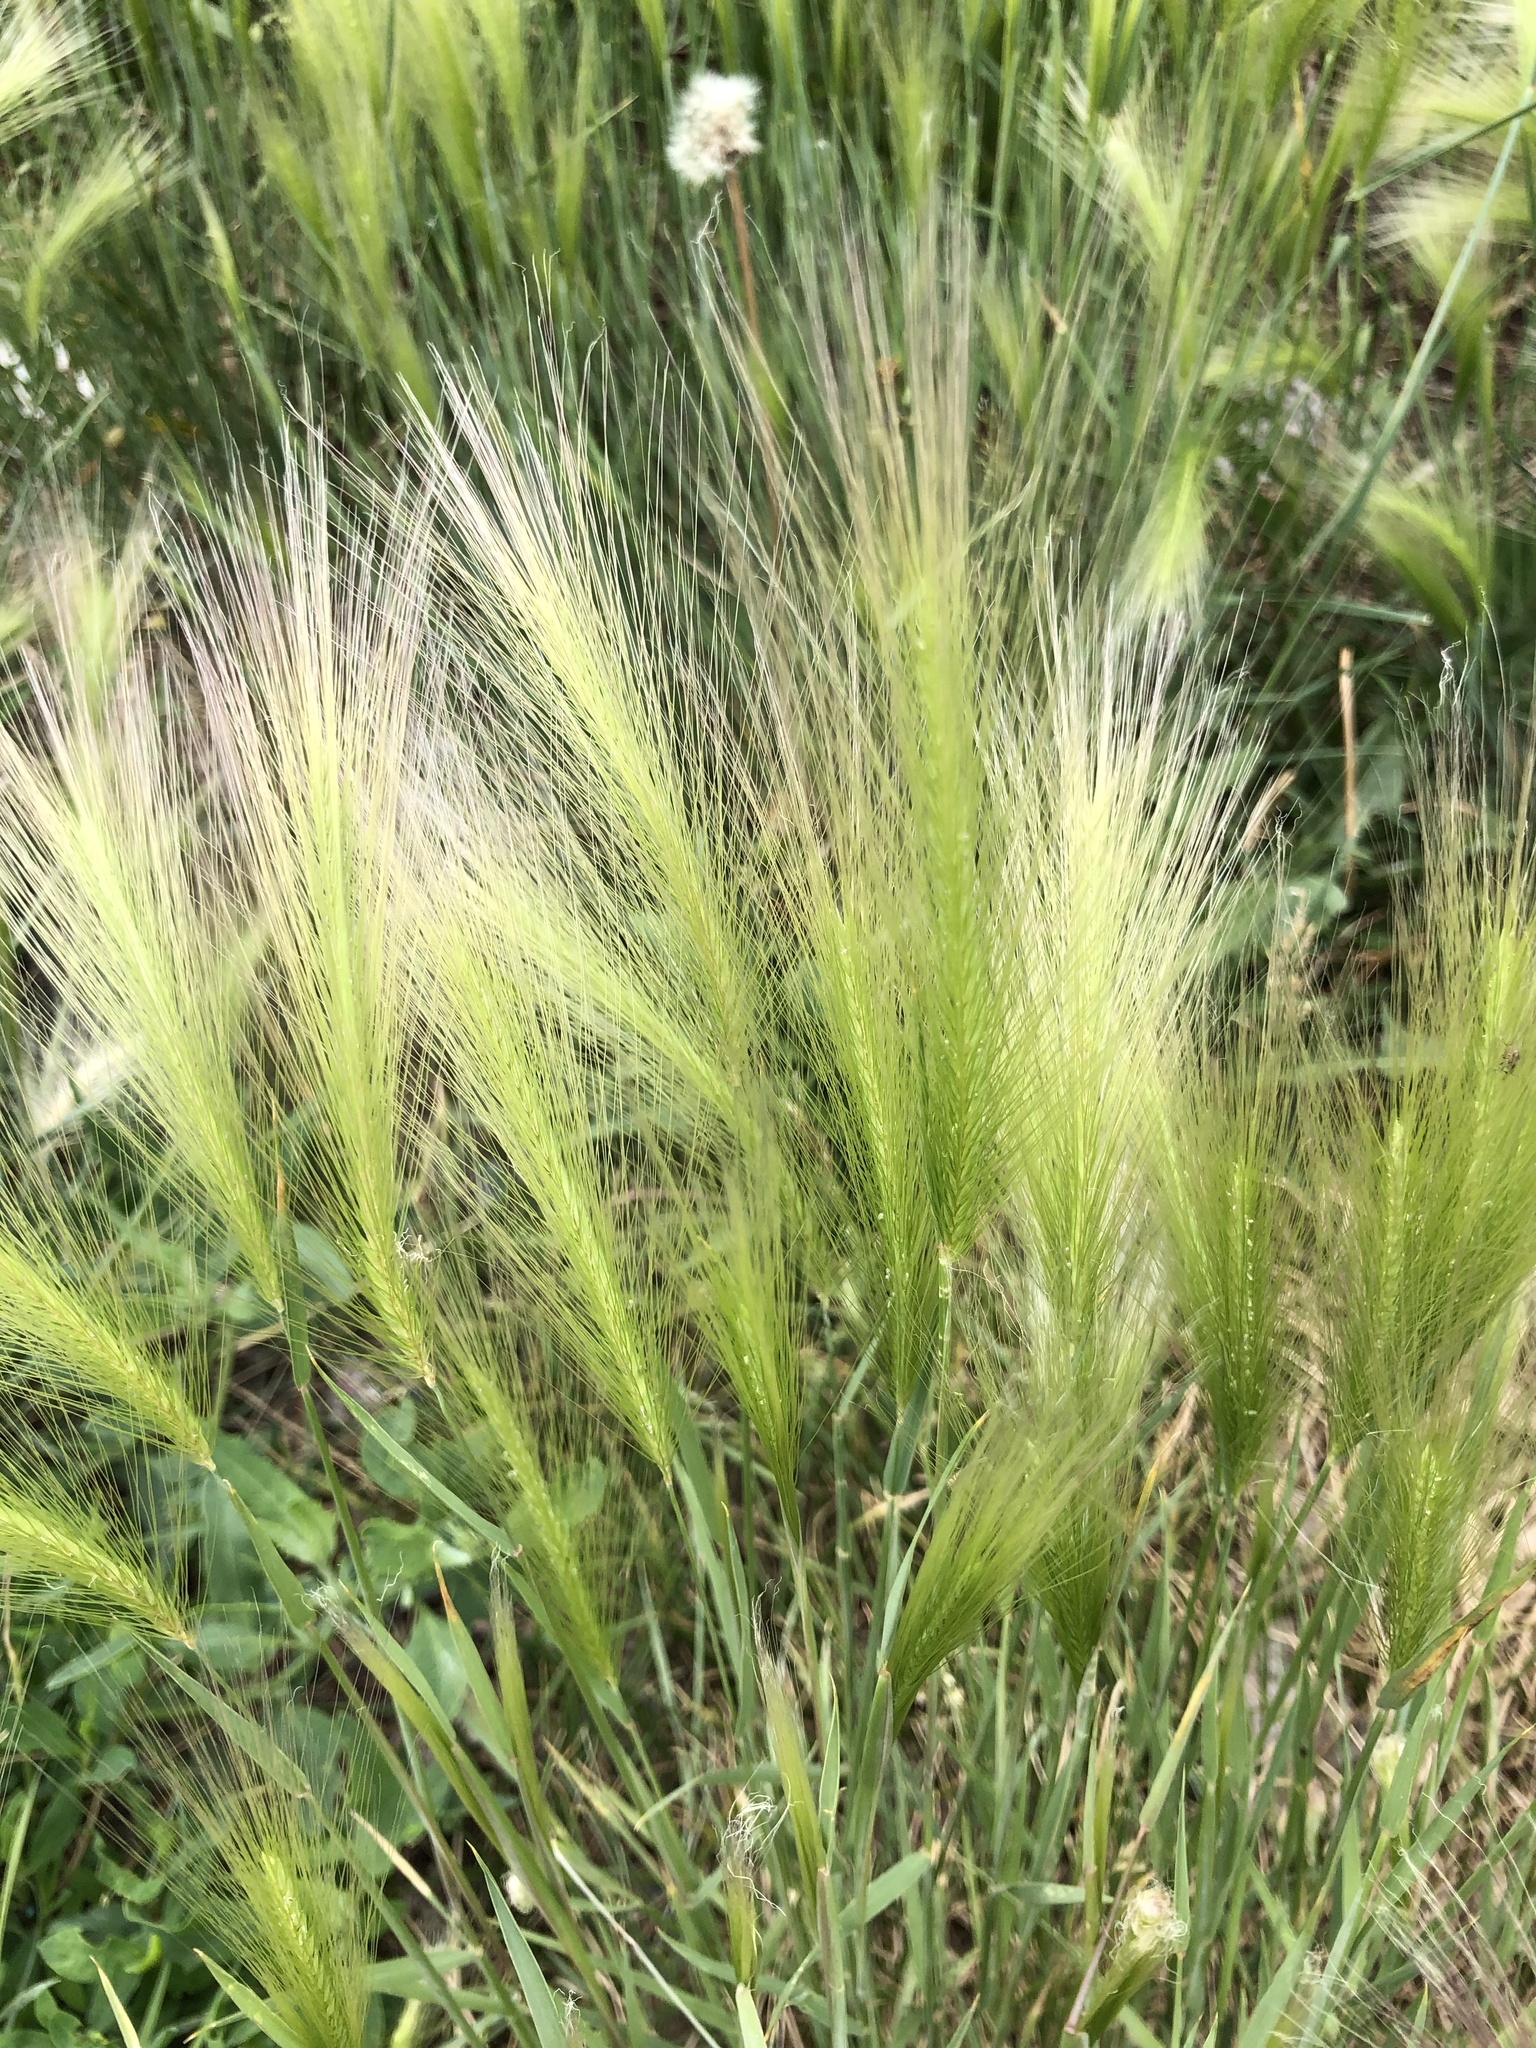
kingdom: Plantae
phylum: Tracheophyta
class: Liliopsida
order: Poales
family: Poaceae
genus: Hordeum
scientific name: Hordeum jubatum
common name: Foxtail barley
